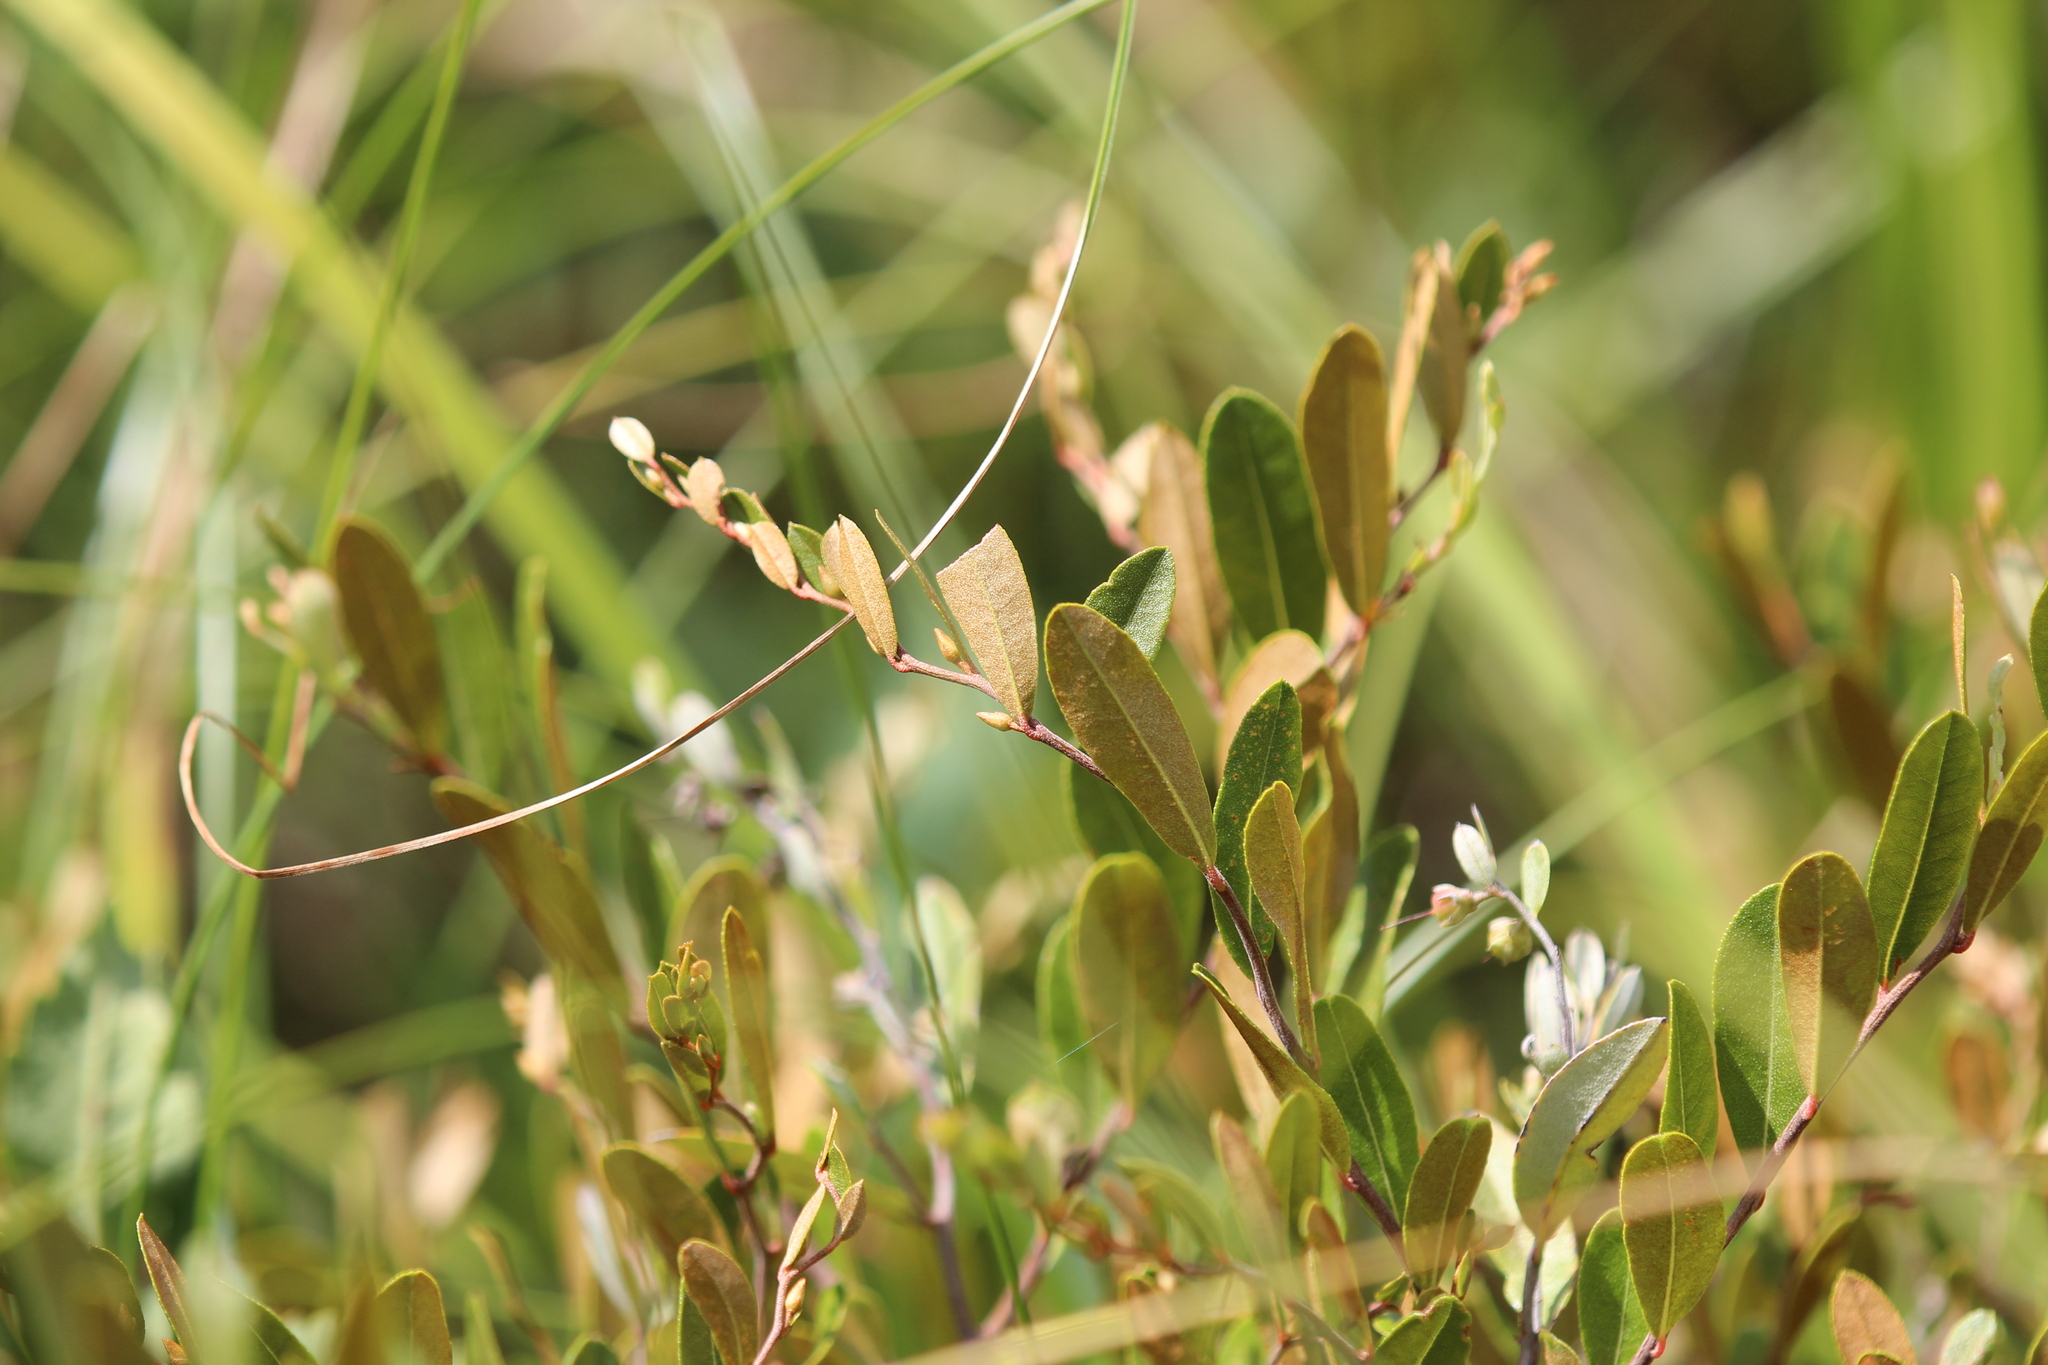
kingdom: Plantae
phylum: Tracheophyta
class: Magnoliopsida
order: Ericales
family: Ericaceae
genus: Chamaedaphne
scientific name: Chamaedaphne calyculata
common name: Leatherleaf
